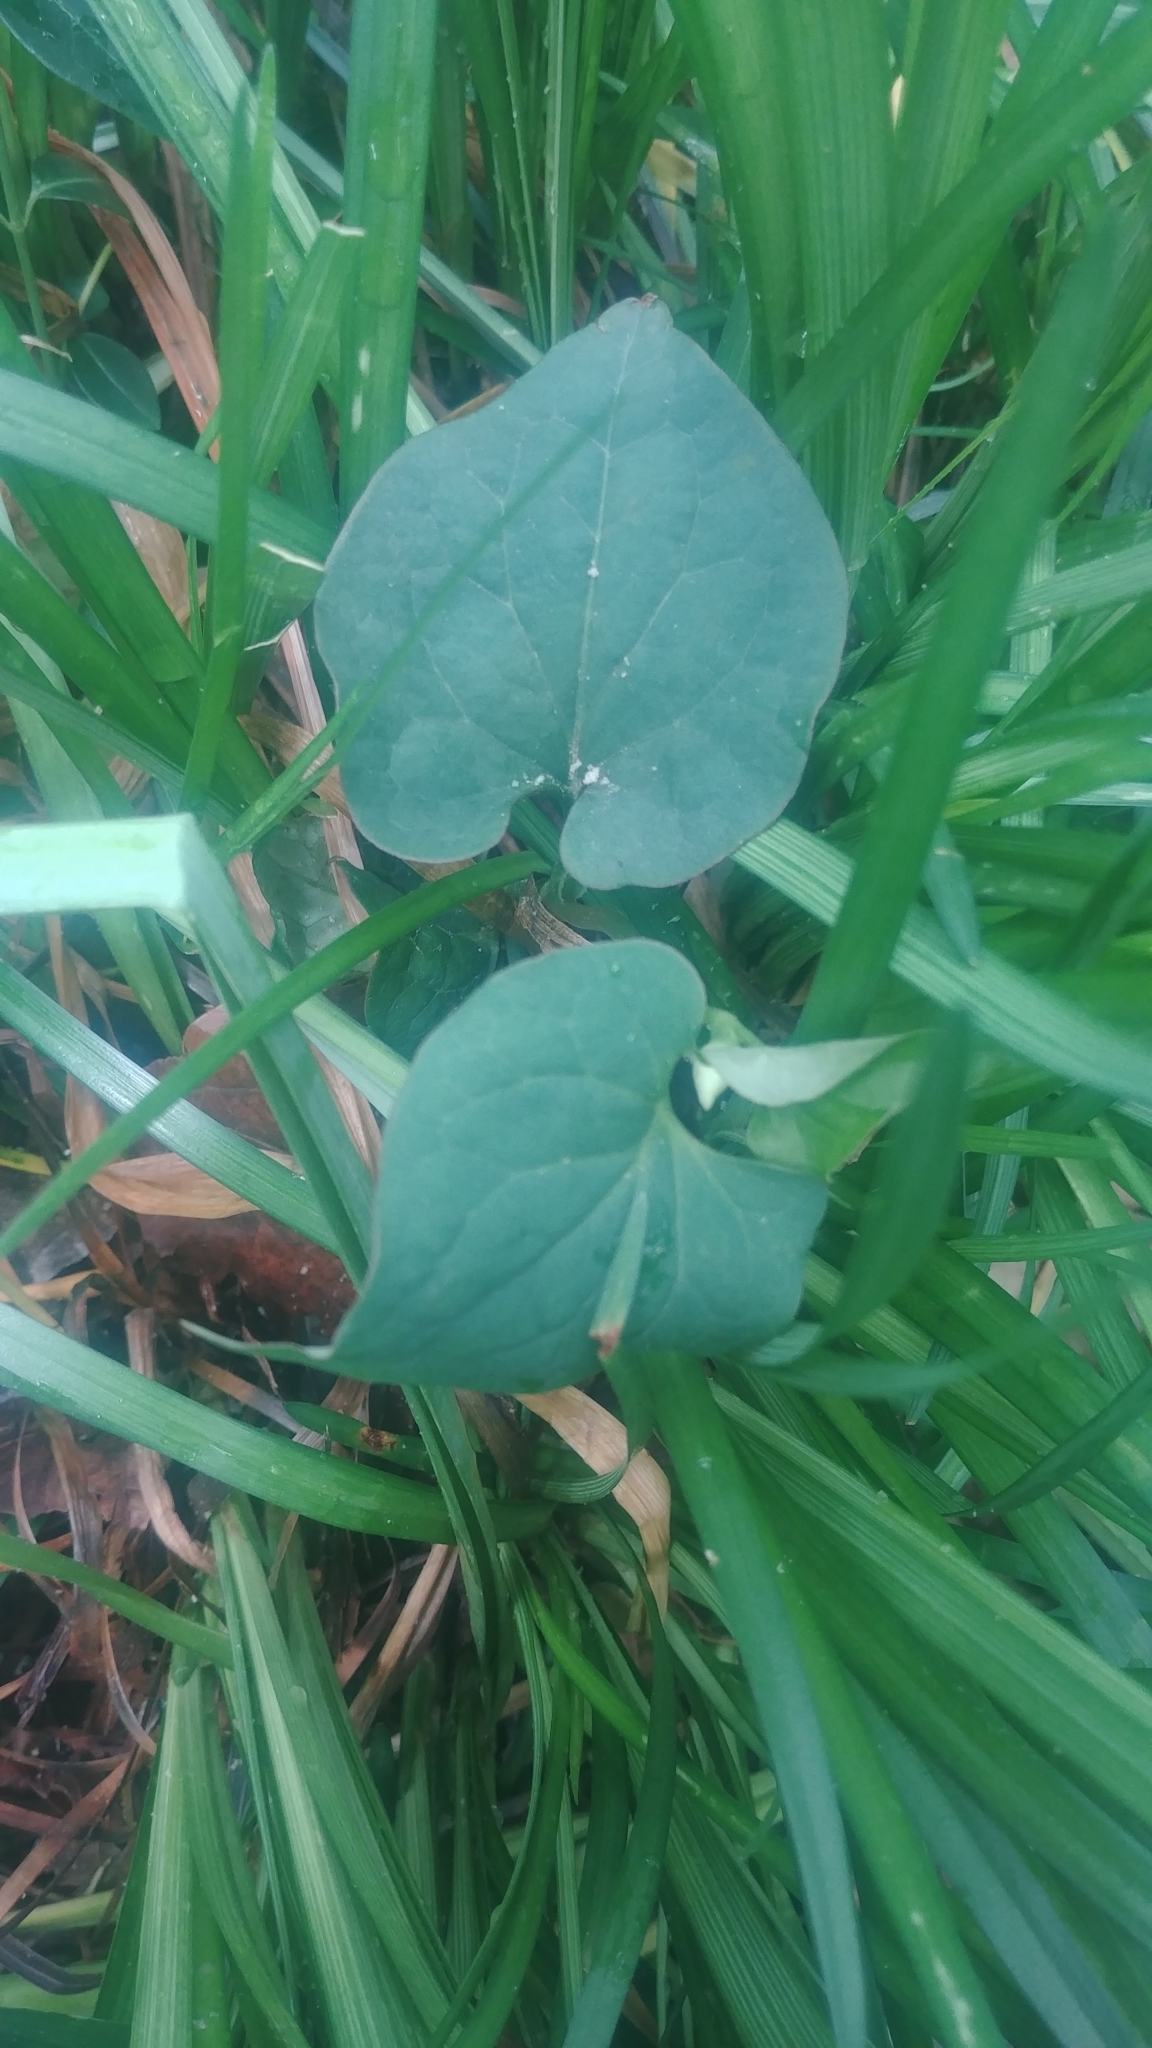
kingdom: Plantae
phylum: Tracheophyta
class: Magnoliopsida
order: Piperales
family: Saururaceae
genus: Houttuynia
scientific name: Houttuynia cordata
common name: Chameleon
